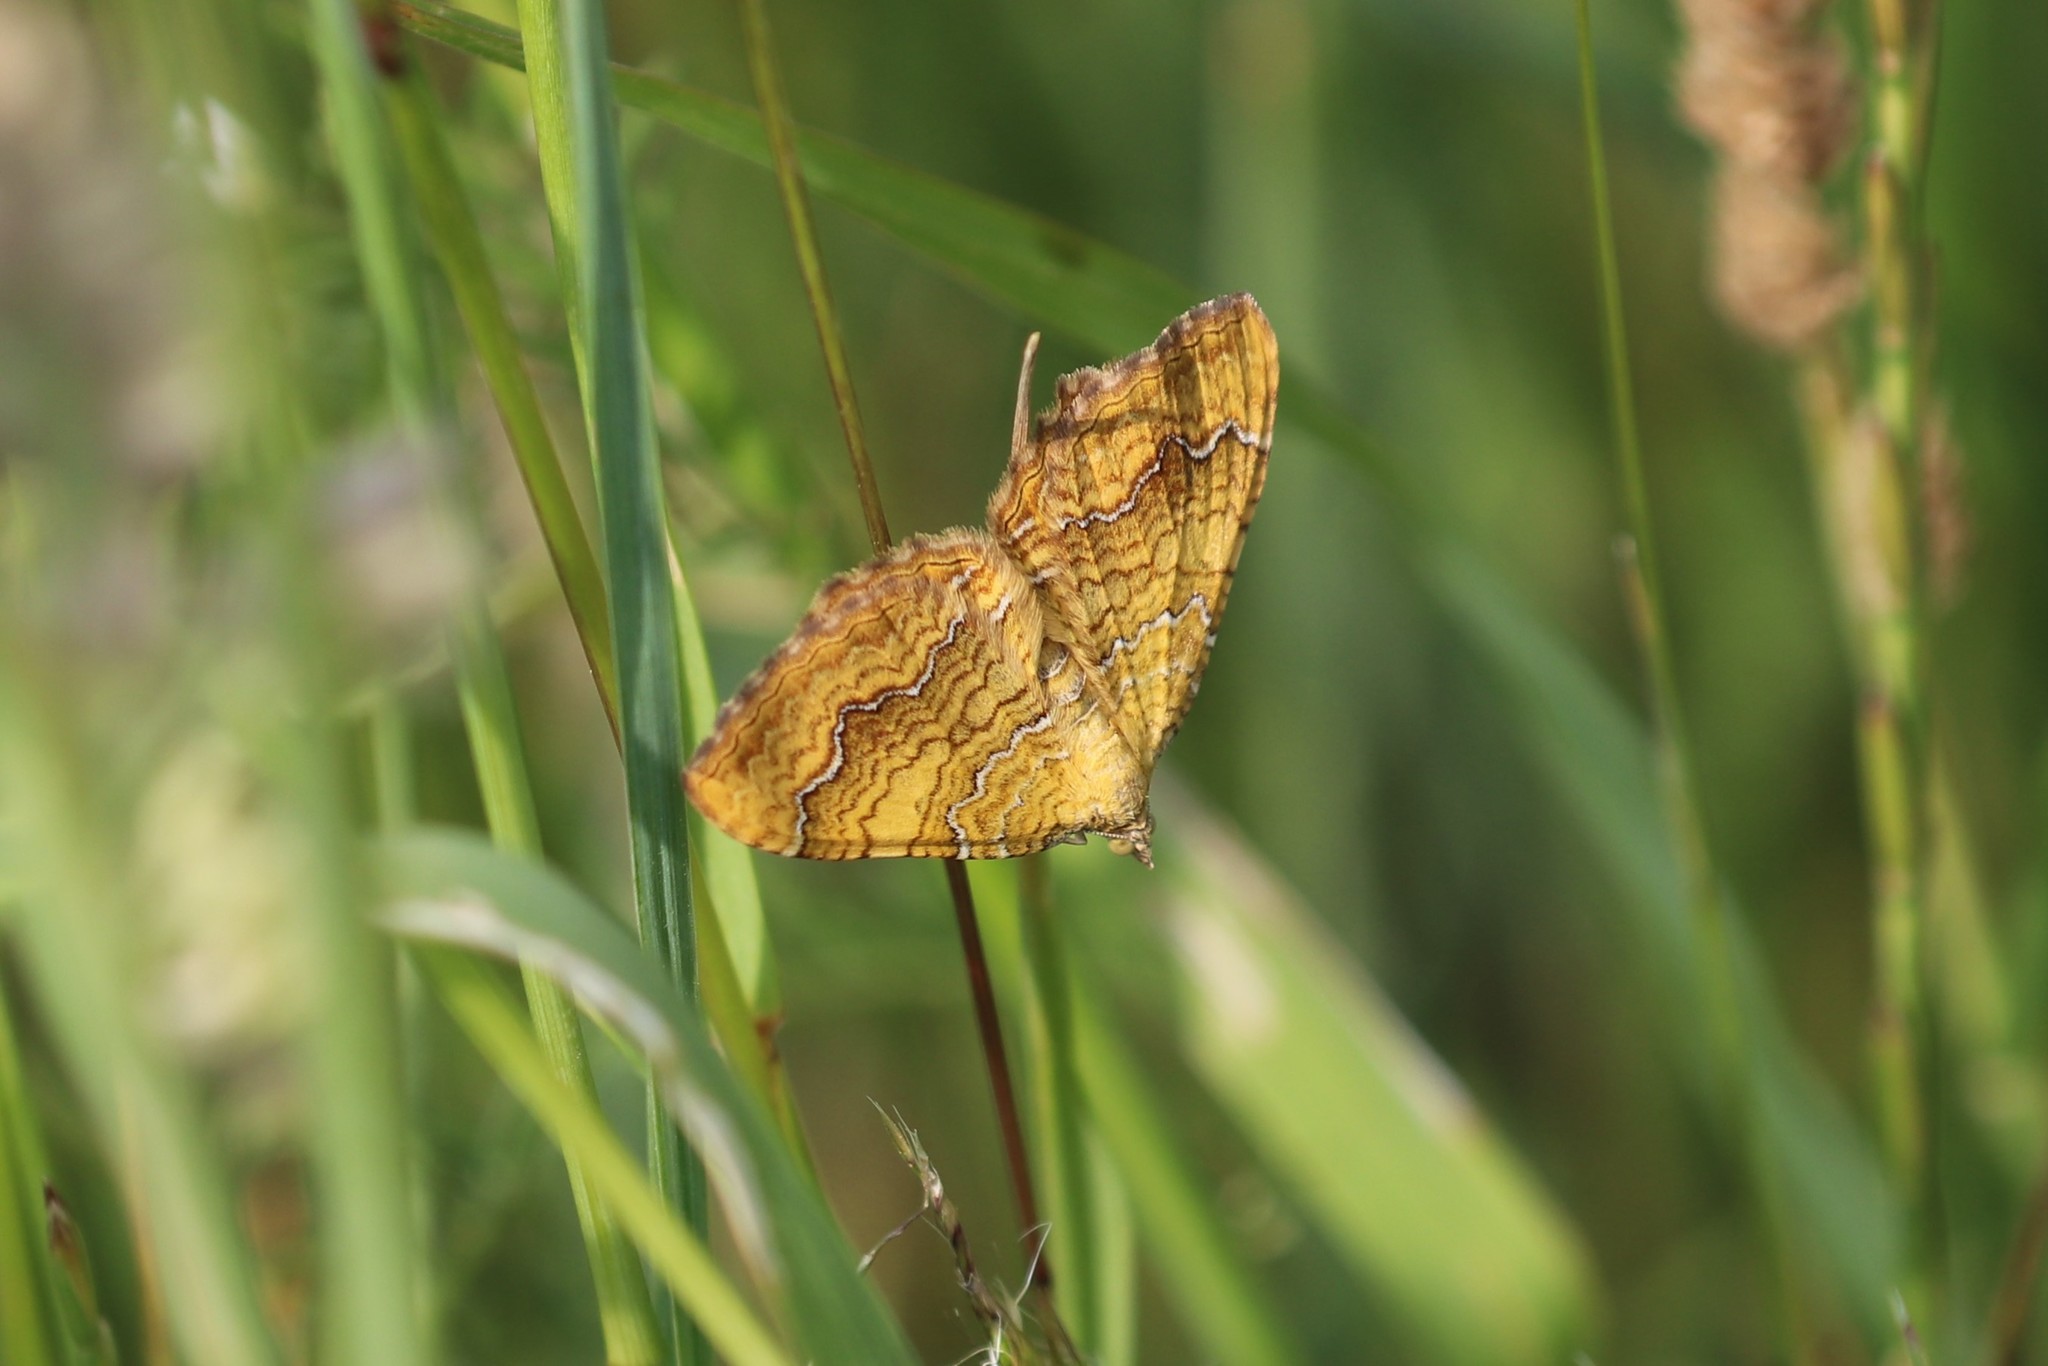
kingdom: Animalia
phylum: Arthropoda
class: Insecta
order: Lepidoptera
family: Geometridae
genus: Camptogramma
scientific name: Camptogramma bilineata
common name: Yellow shell
